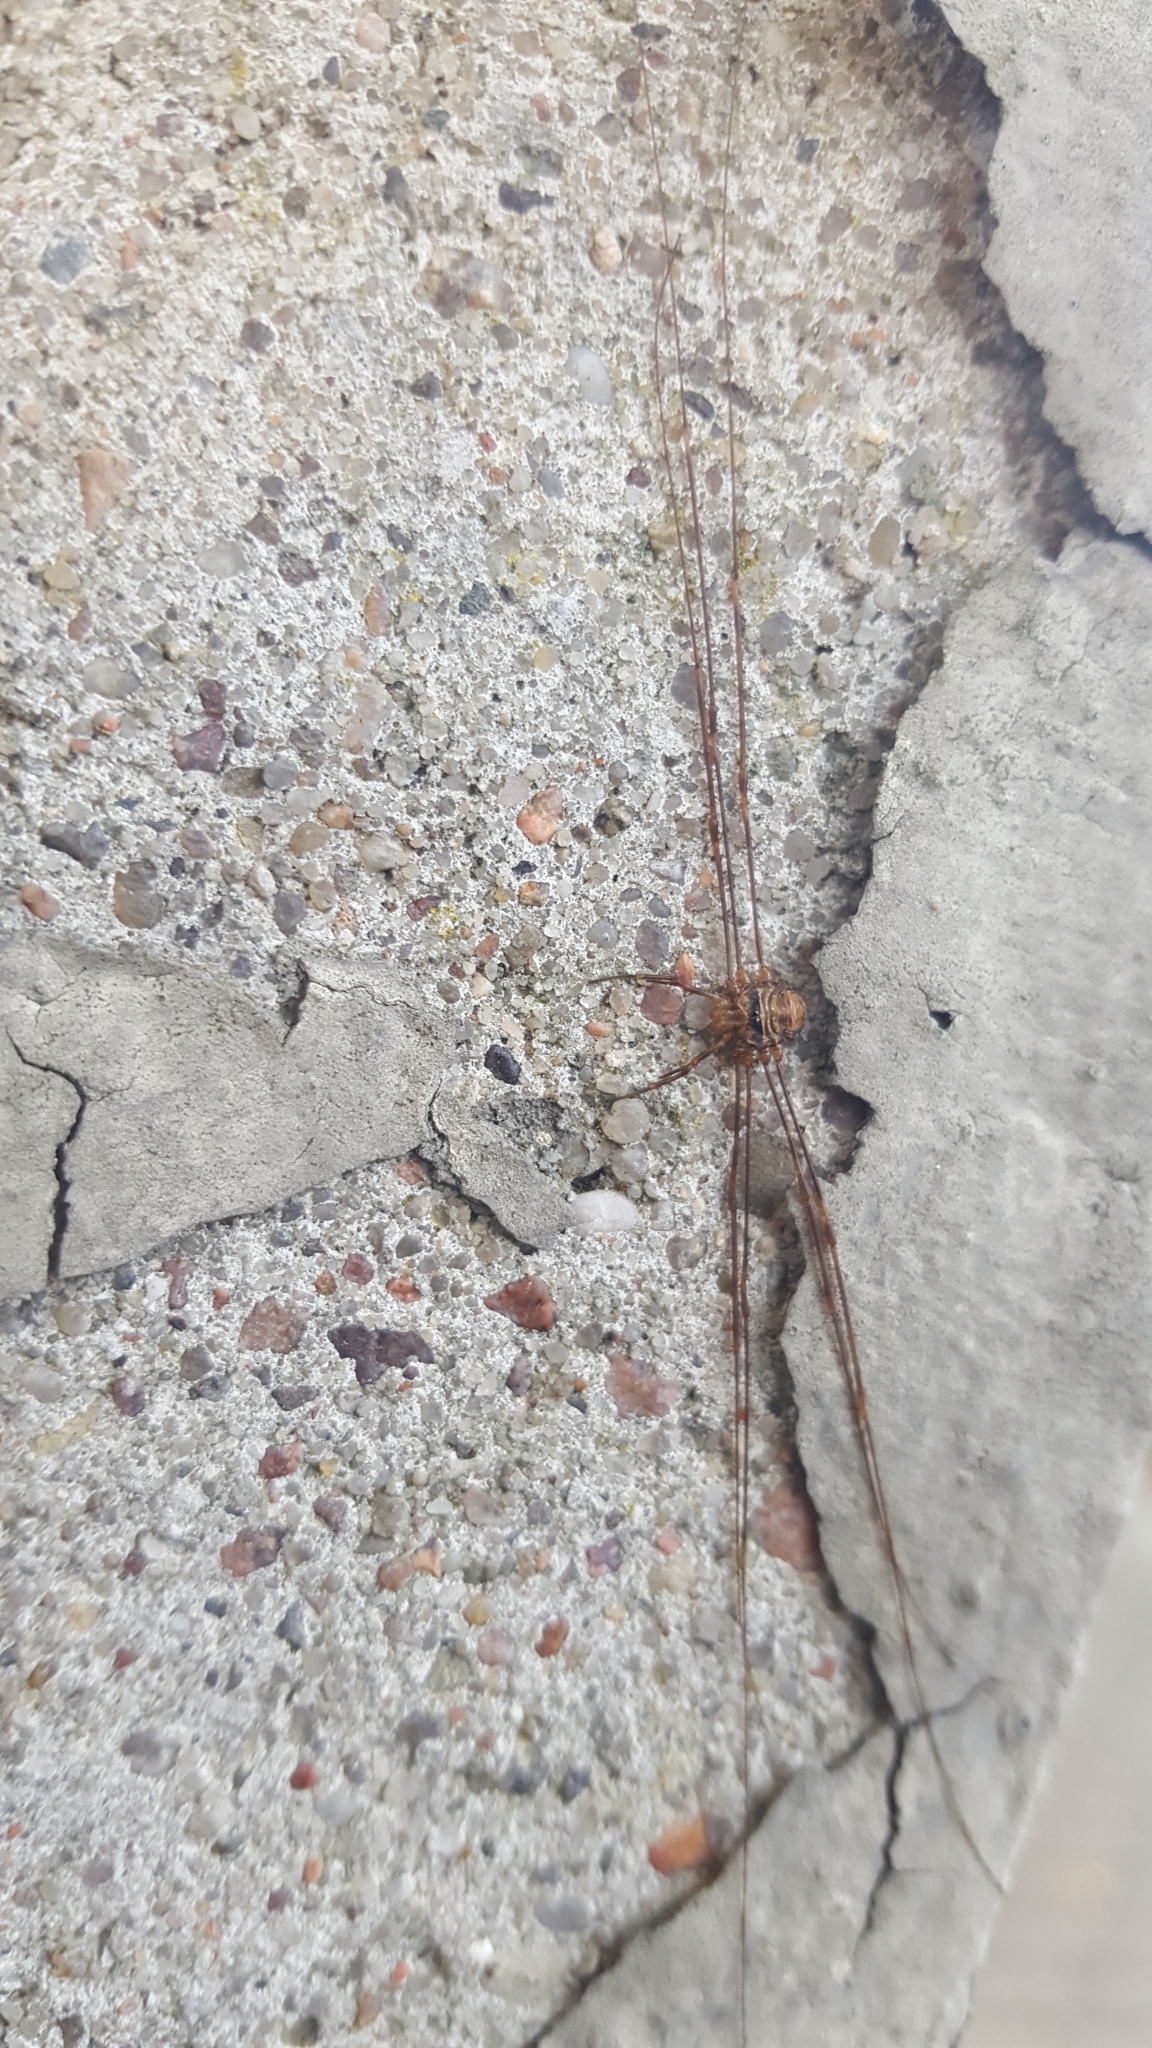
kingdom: Animalia
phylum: Arthropoda
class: Arachnida
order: Opiliones
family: Phalangiidae
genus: Dicranopalpus
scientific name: Dicranopalpus ramosus
